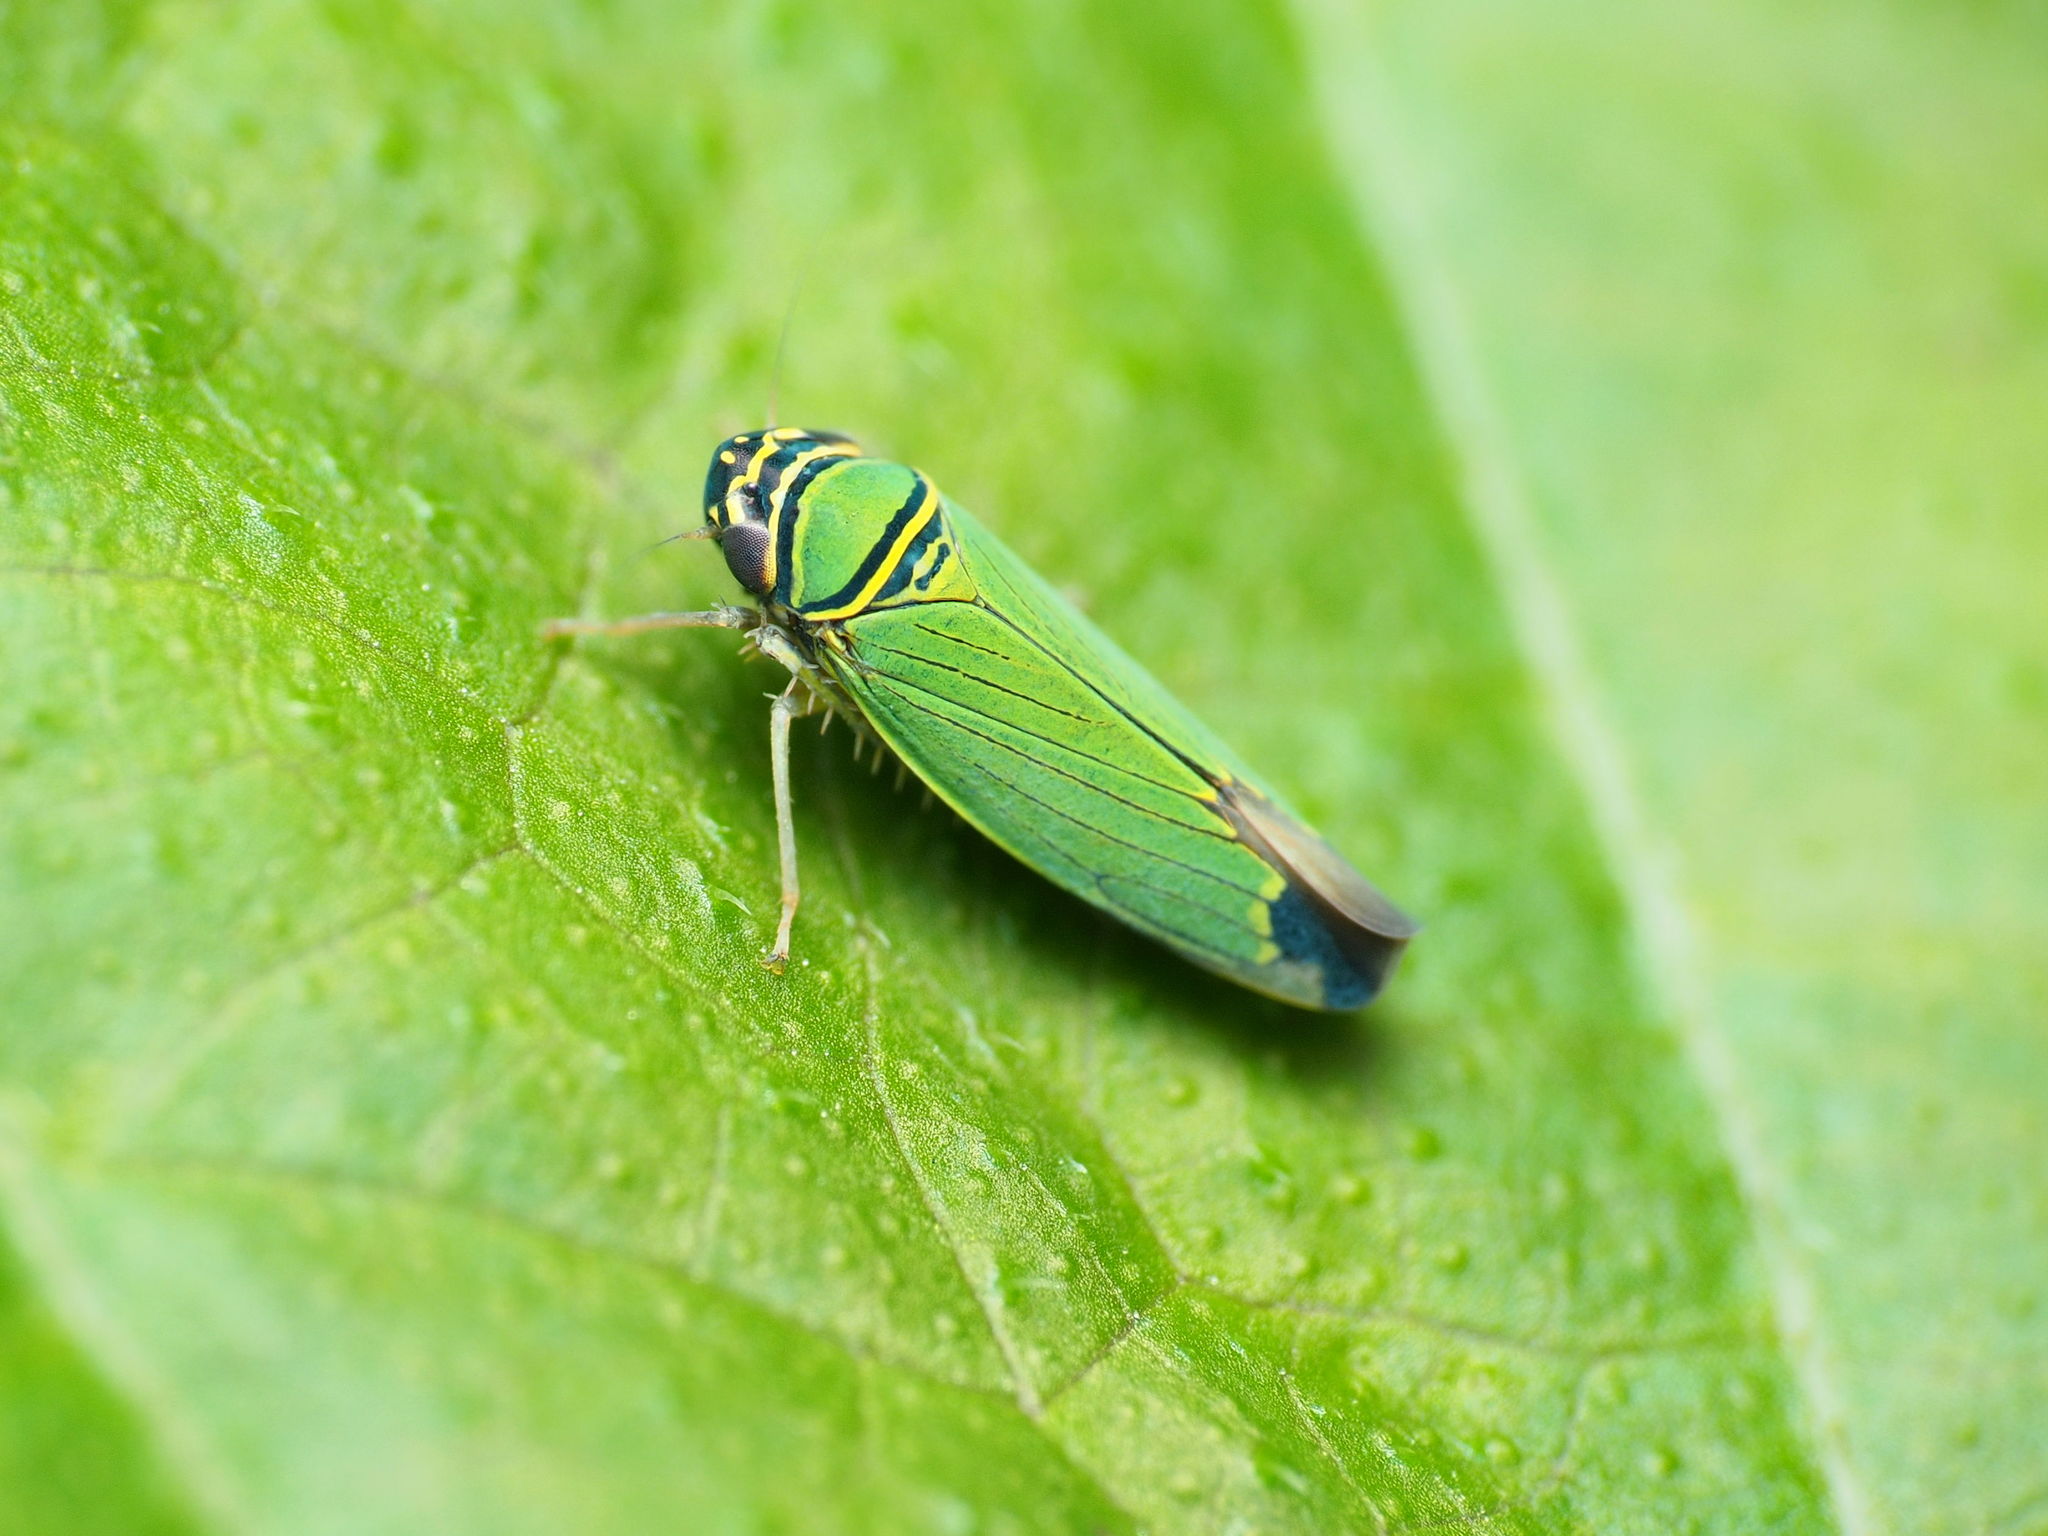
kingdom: Animalia
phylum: Arthropoda
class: Insecta
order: Hemiptera
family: Cicadellidae
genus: Tylozygus
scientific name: Tylozygus geometricus
